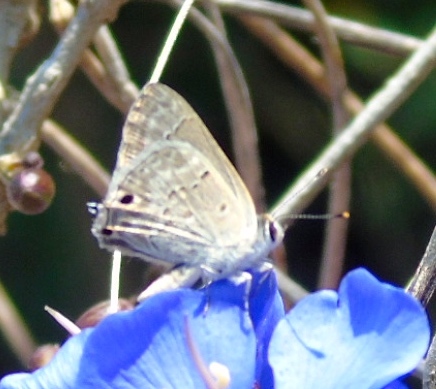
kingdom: Animalia
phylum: Arthropoda
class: Insecta
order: Lepidoptera
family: Lycaenidae
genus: Callicista
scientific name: Callicista columella
